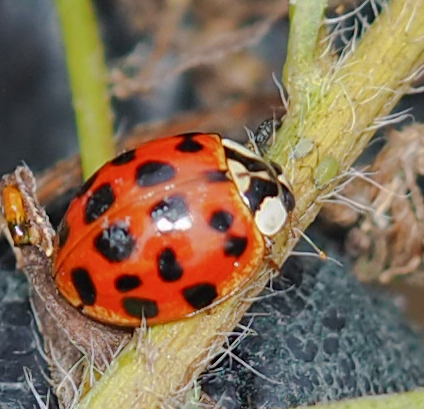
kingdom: Animalia
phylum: Arthropoda
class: Insecta
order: Coleoptera
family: Coccinellidae
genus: Harmonia
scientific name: Harmonia axyridis
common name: Harlequin ladybird
